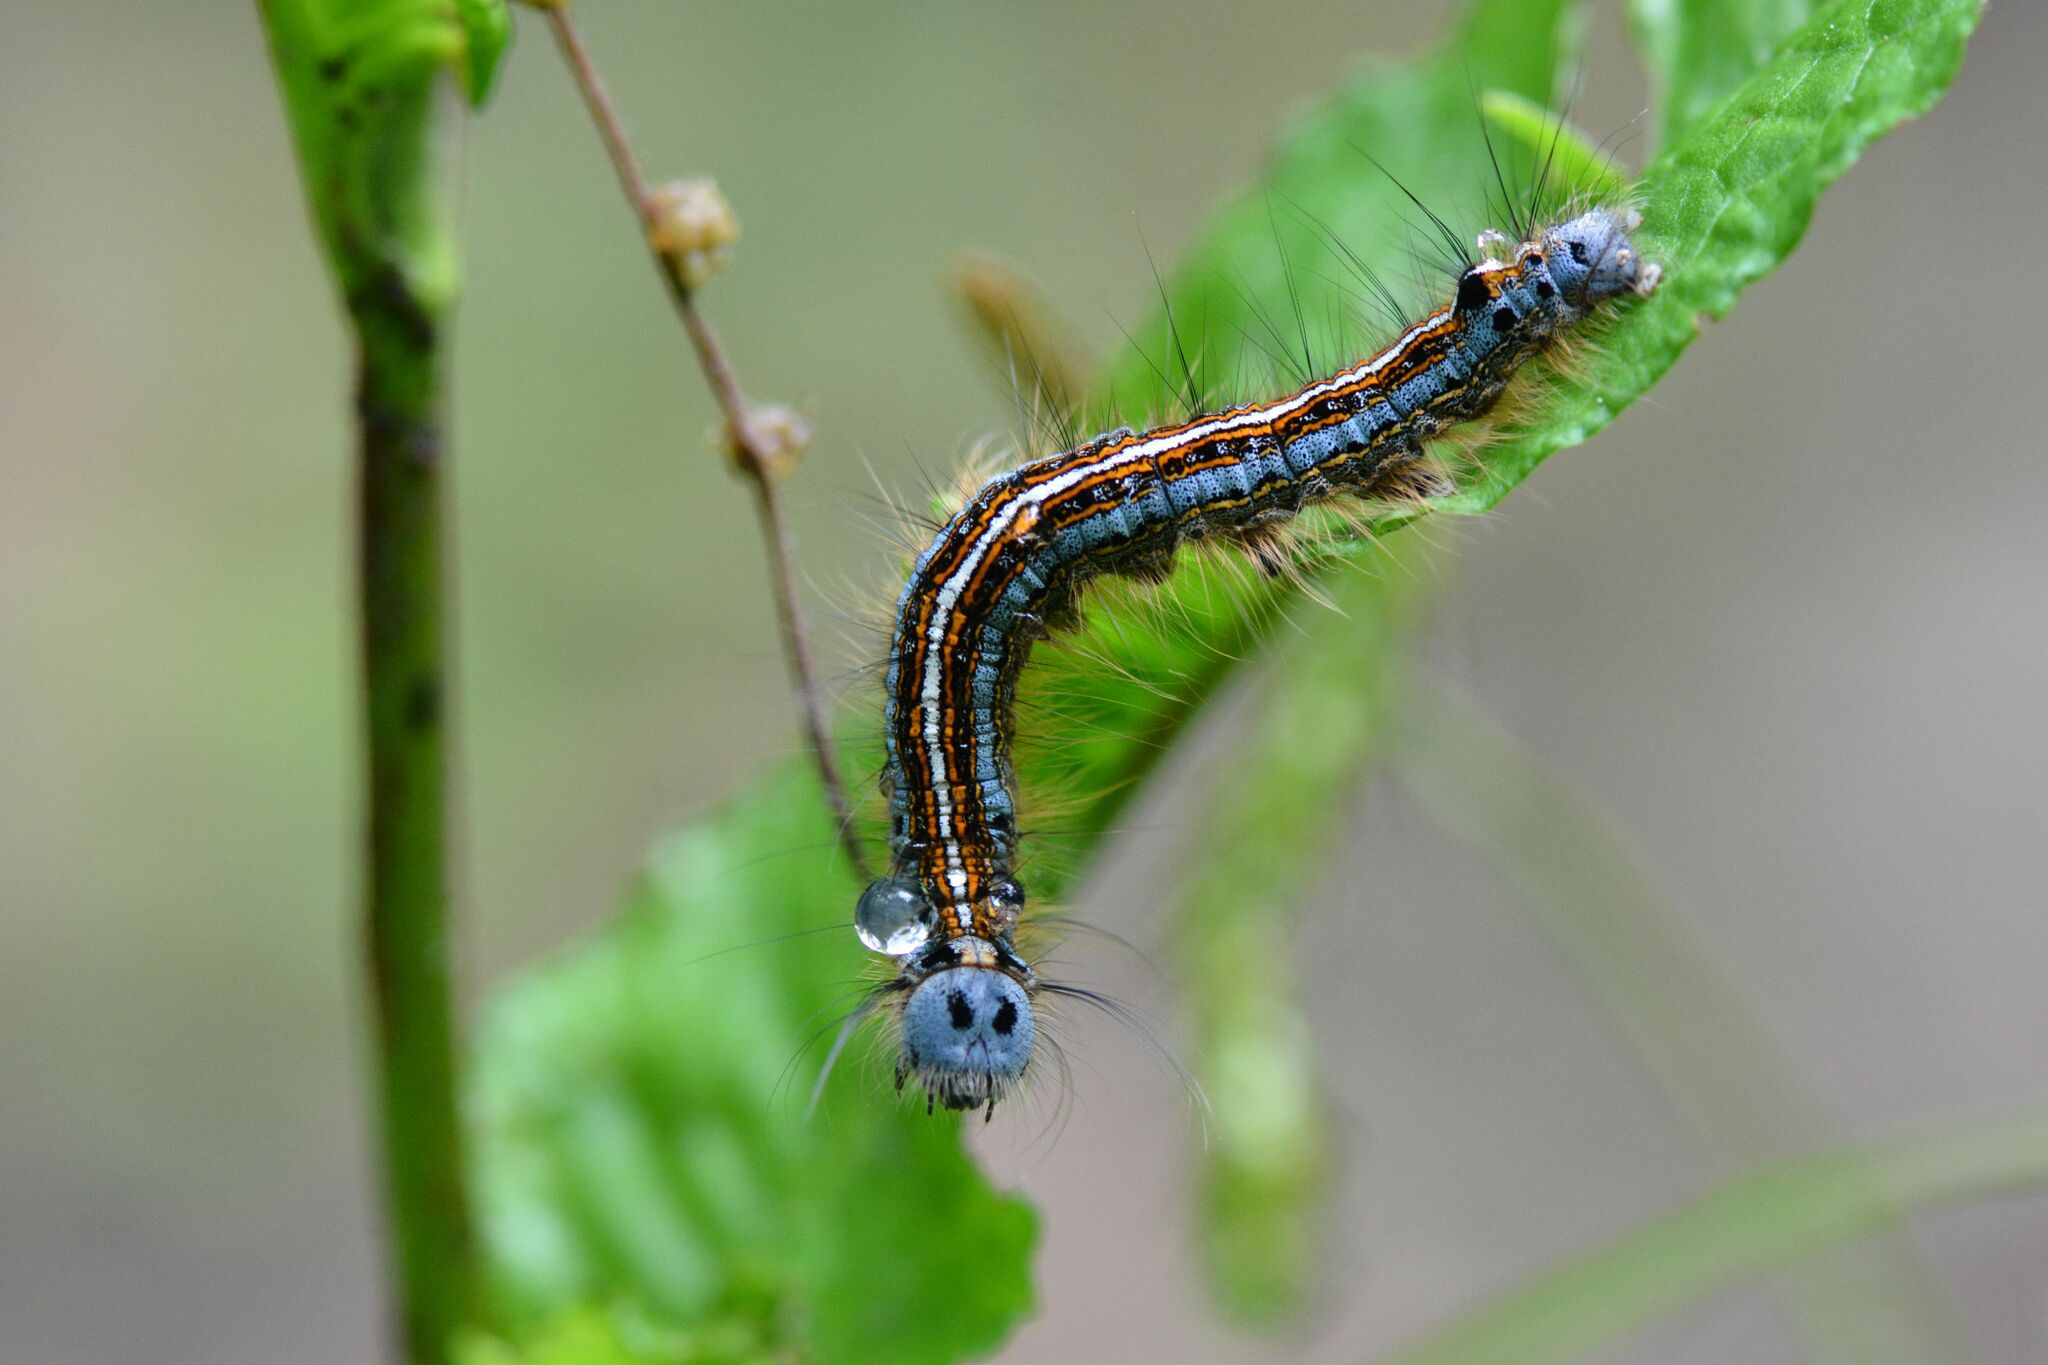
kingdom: Animalia
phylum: Arthropoda
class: Insecta
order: Lepidoptera
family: Lasiocampidae
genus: Malacosoma
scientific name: Malacosoma neustria
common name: The lackey
